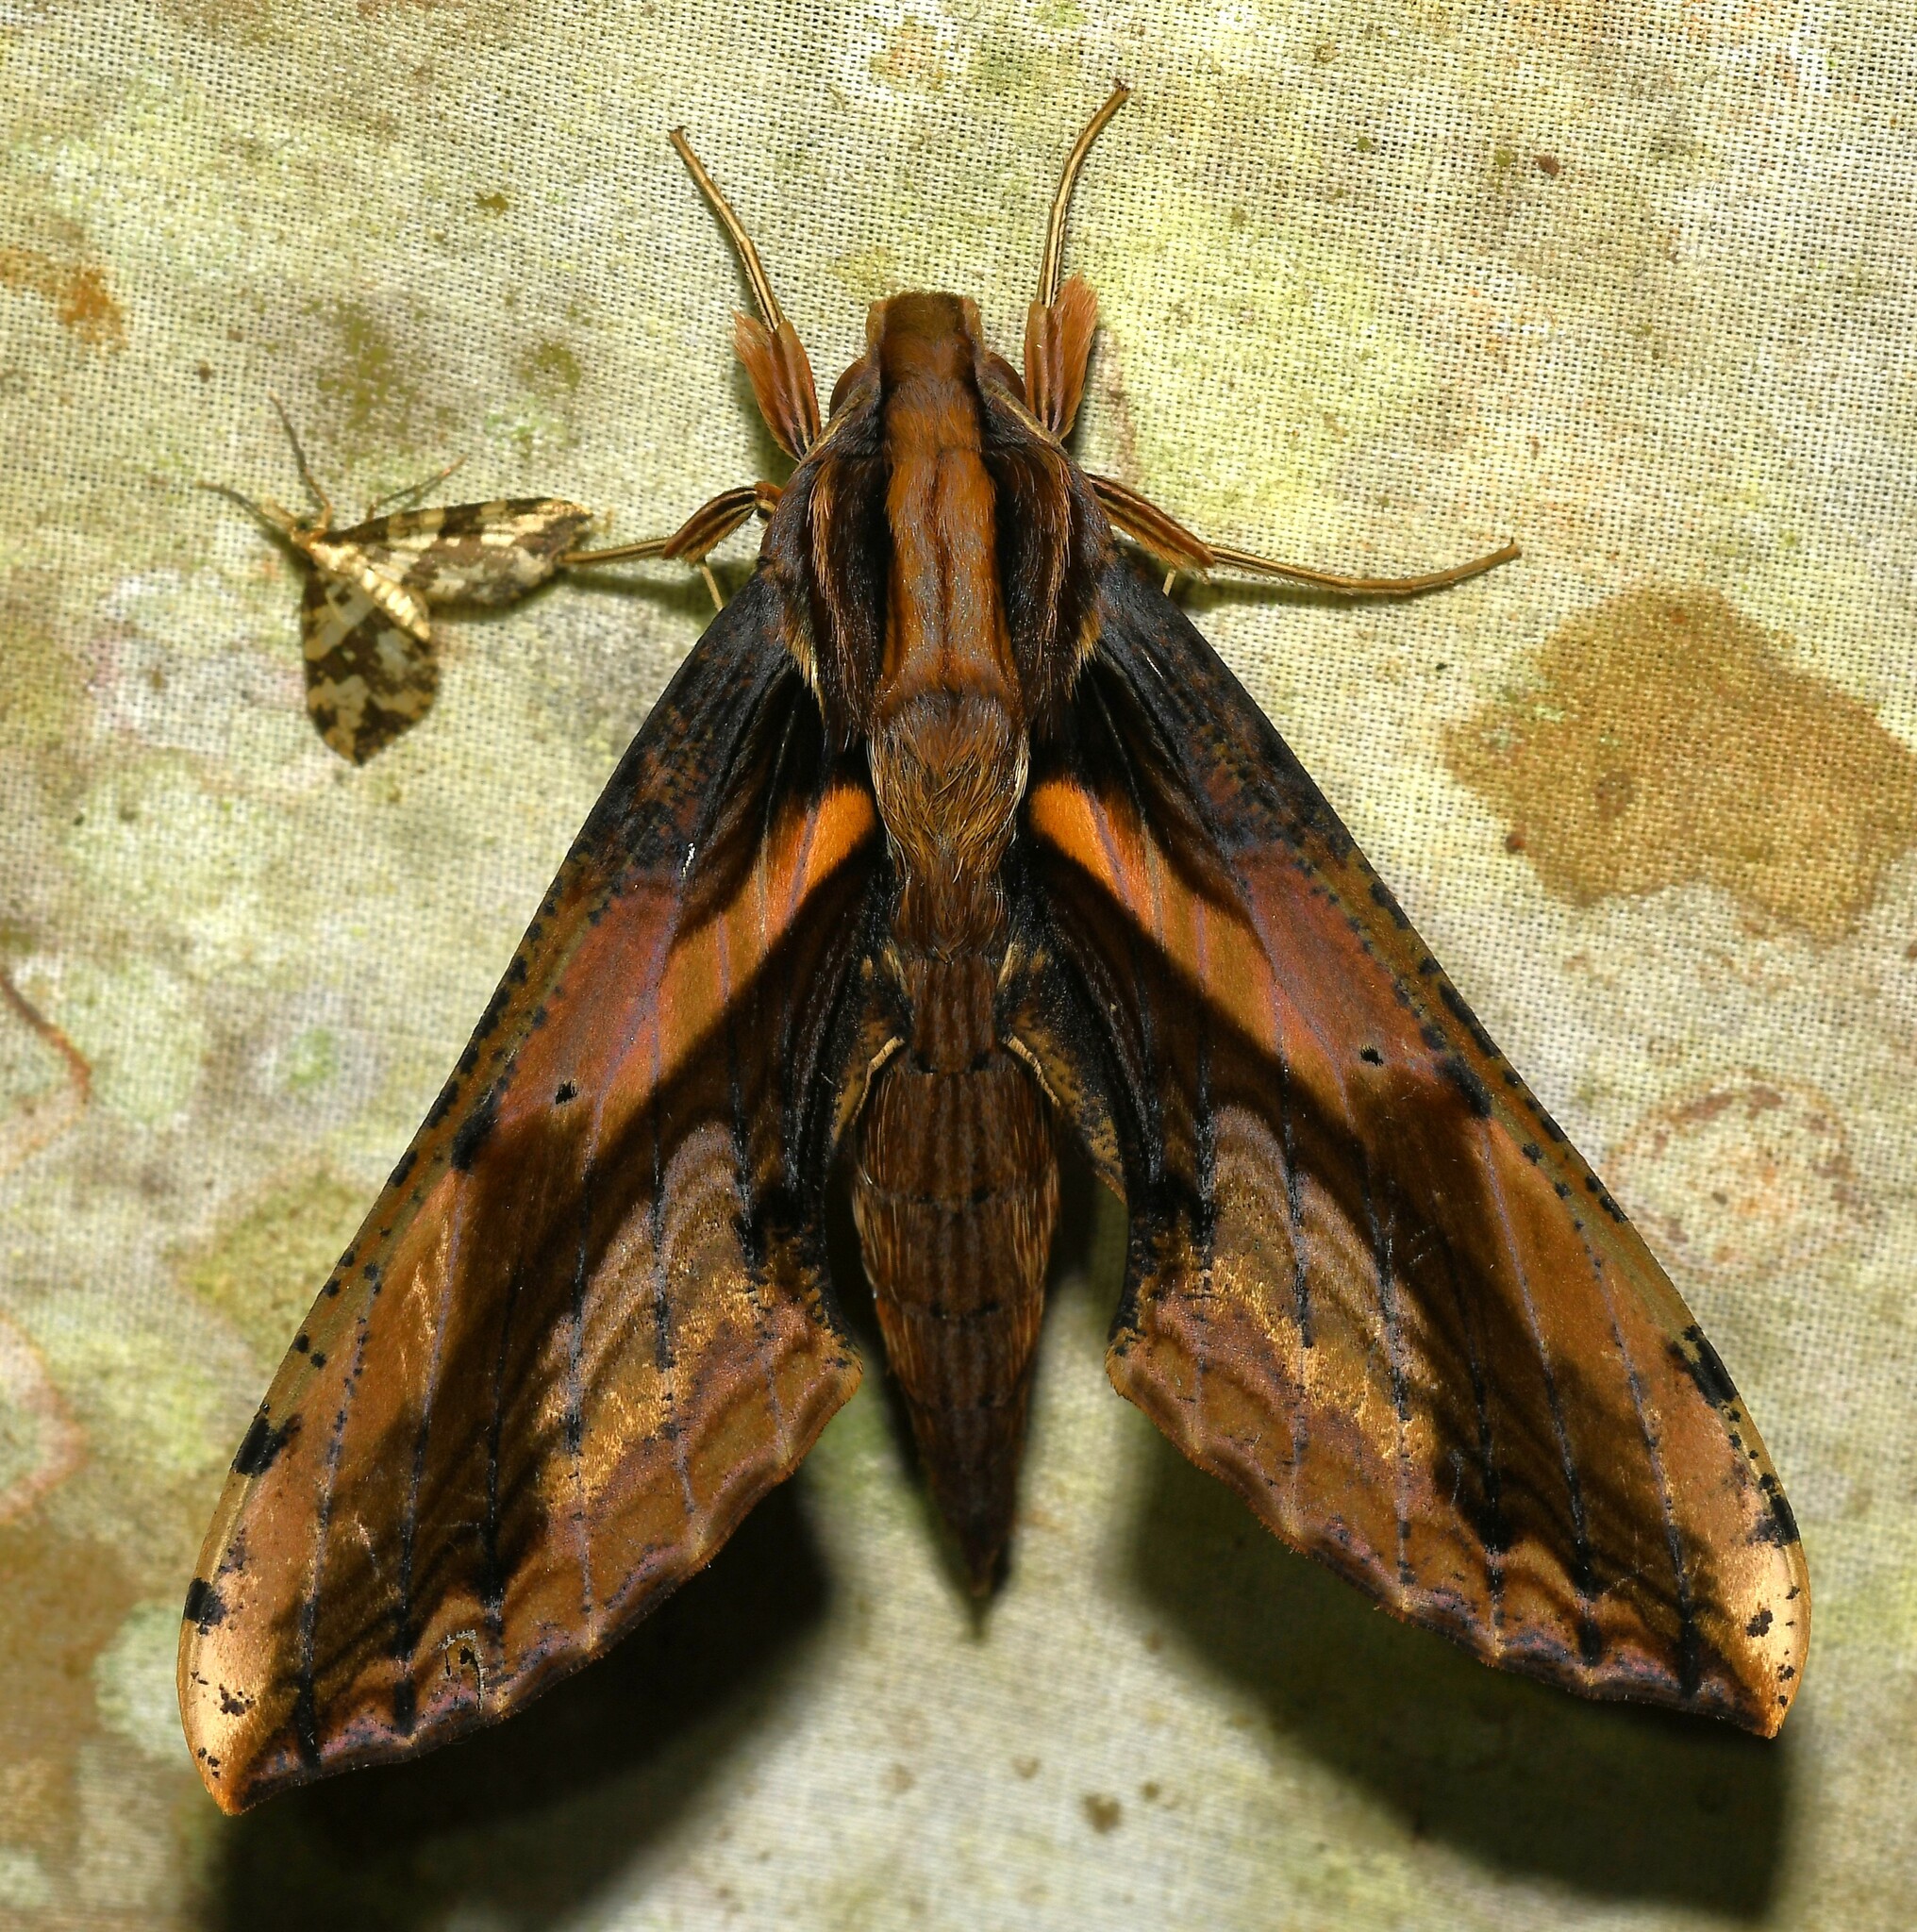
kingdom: Animalia
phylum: Arthropoda
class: Insecta
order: Lepidoptera
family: Sphingidae
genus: Xylophanes
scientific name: Xylophanes ceratomioides
